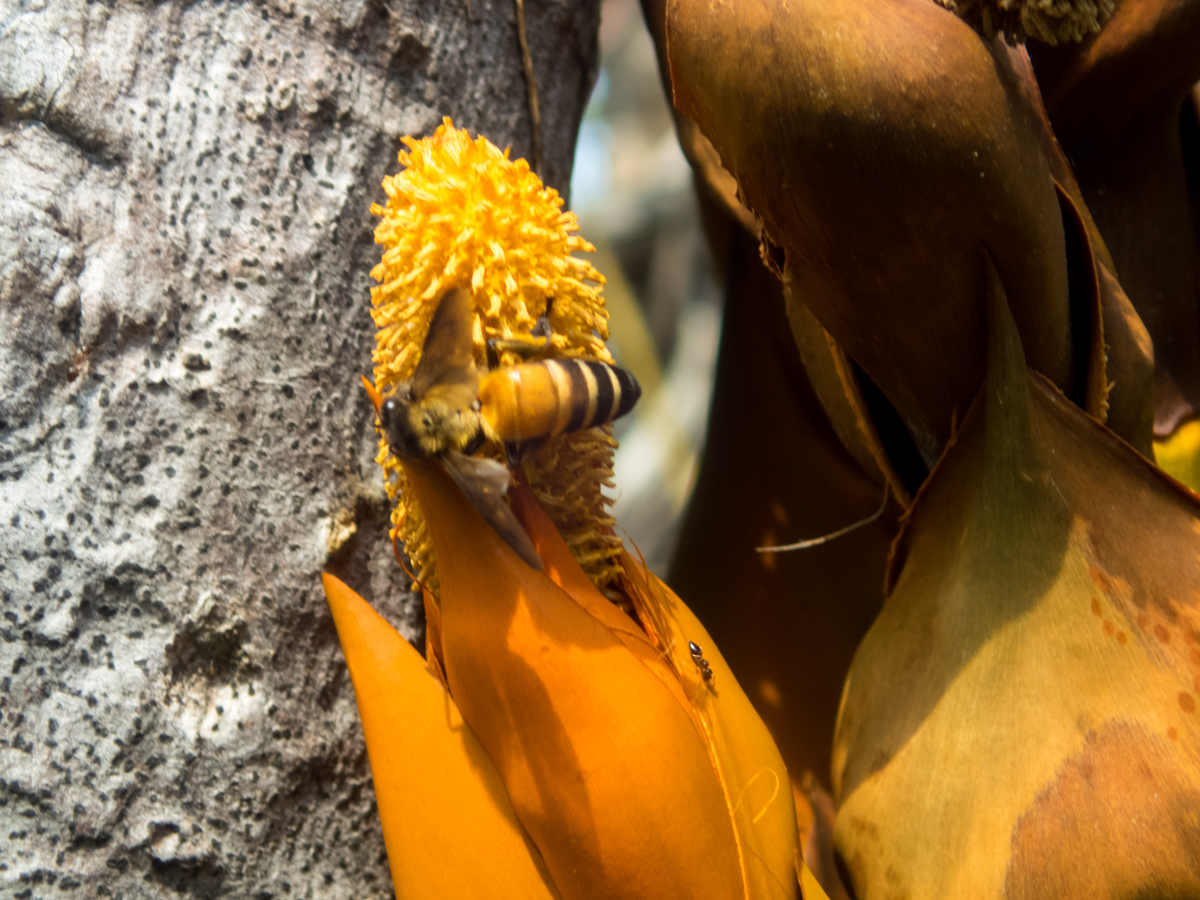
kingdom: Plantae
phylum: Tracheophyta
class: Liliopsida
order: Arecales
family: Arecaceae
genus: Nypa
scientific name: Nypa fruticans
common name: Mangrove palm
